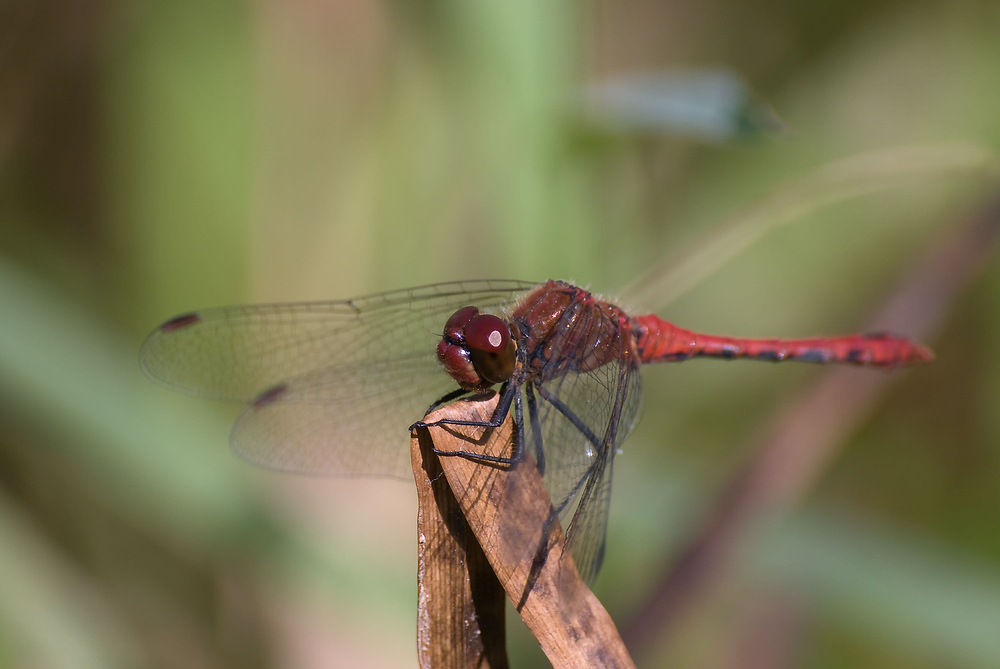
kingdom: Animalia
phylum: Arthropoda
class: Insecta
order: Odonata
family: Libellulidae
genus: Sympetrum
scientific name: Sympetrum sanguineum
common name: Ruddy darter
